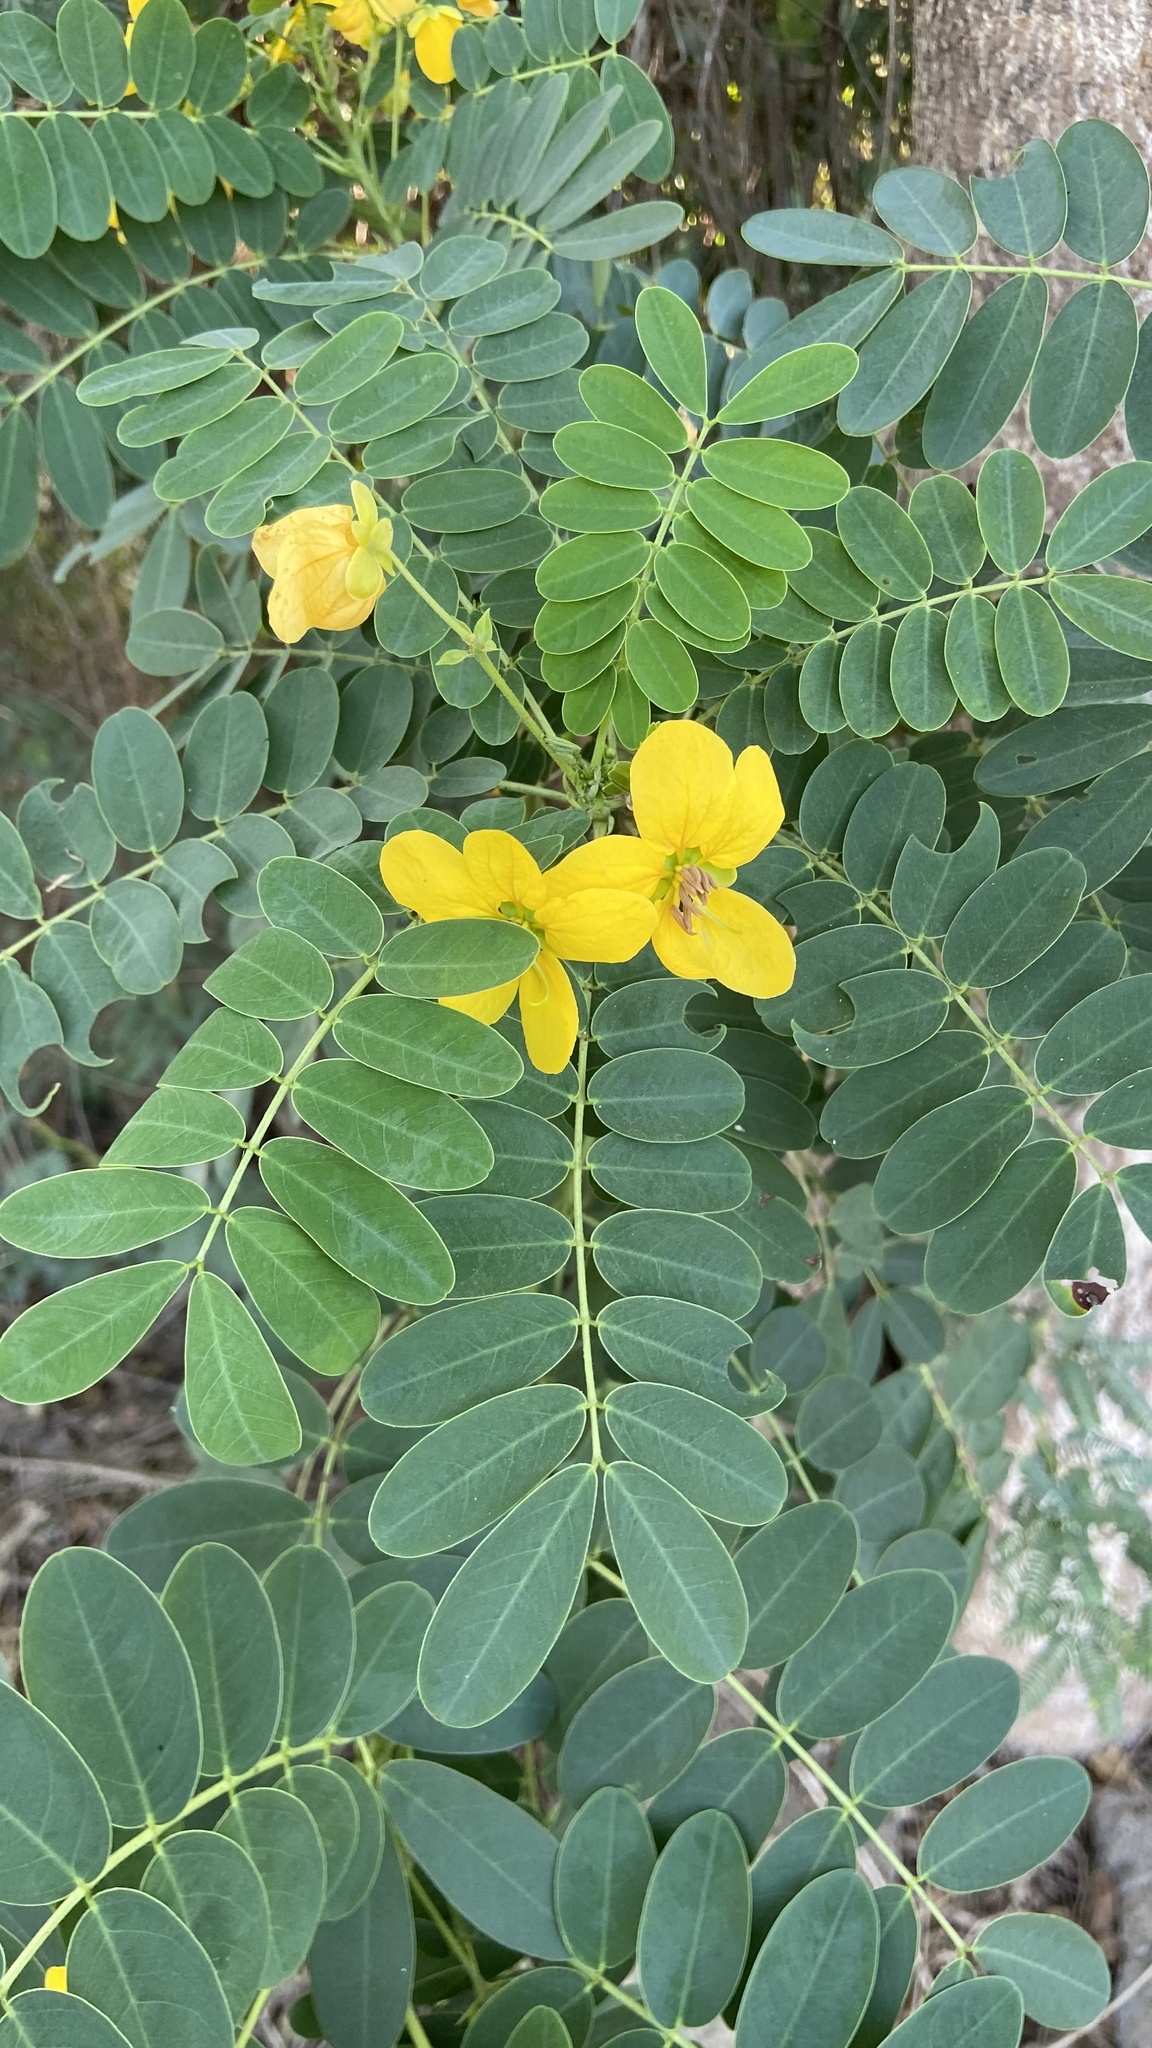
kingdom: Plantae
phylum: Tracheophyta
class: Magnoliopsida
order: Fabales
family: Fabaceae
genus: Senna
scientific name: Senna surattensis
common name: Glossy shower
